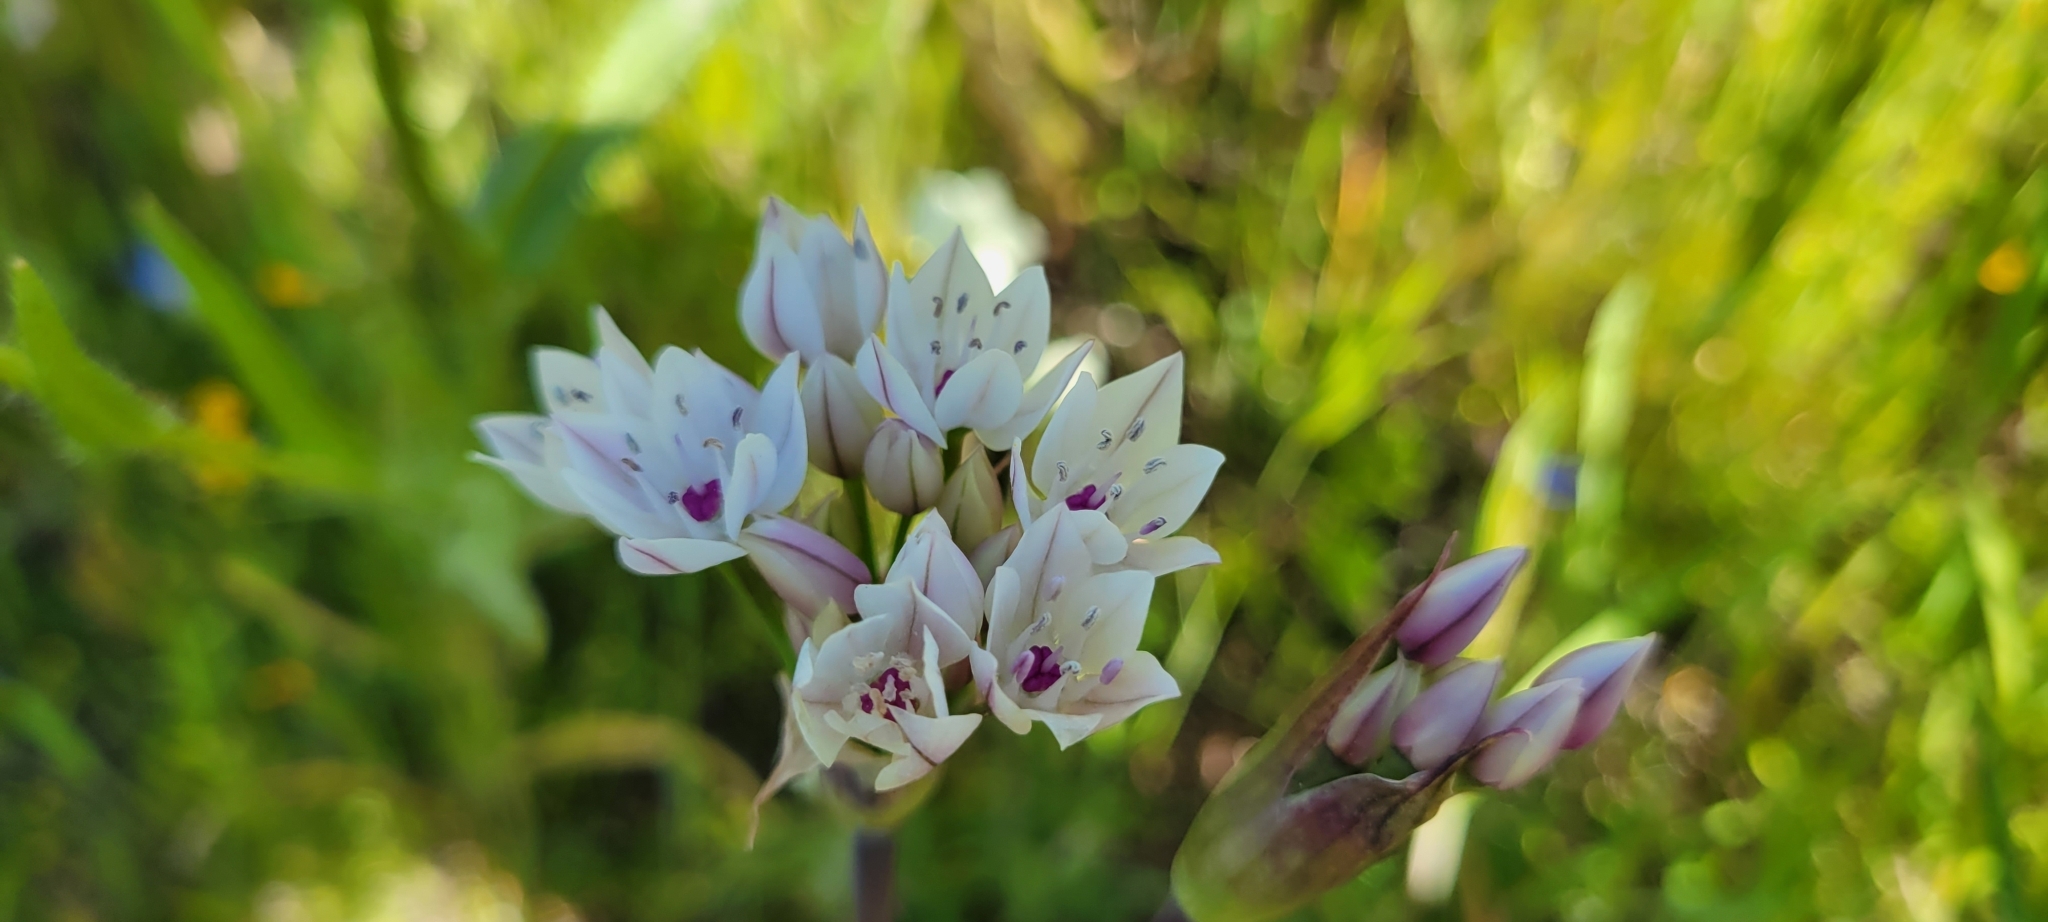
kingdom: Plantae
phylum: Tracheophyta
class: Liliopsida
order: Asparagales
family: Amaryllidaceae
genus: Allium
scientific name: Allium praecox
